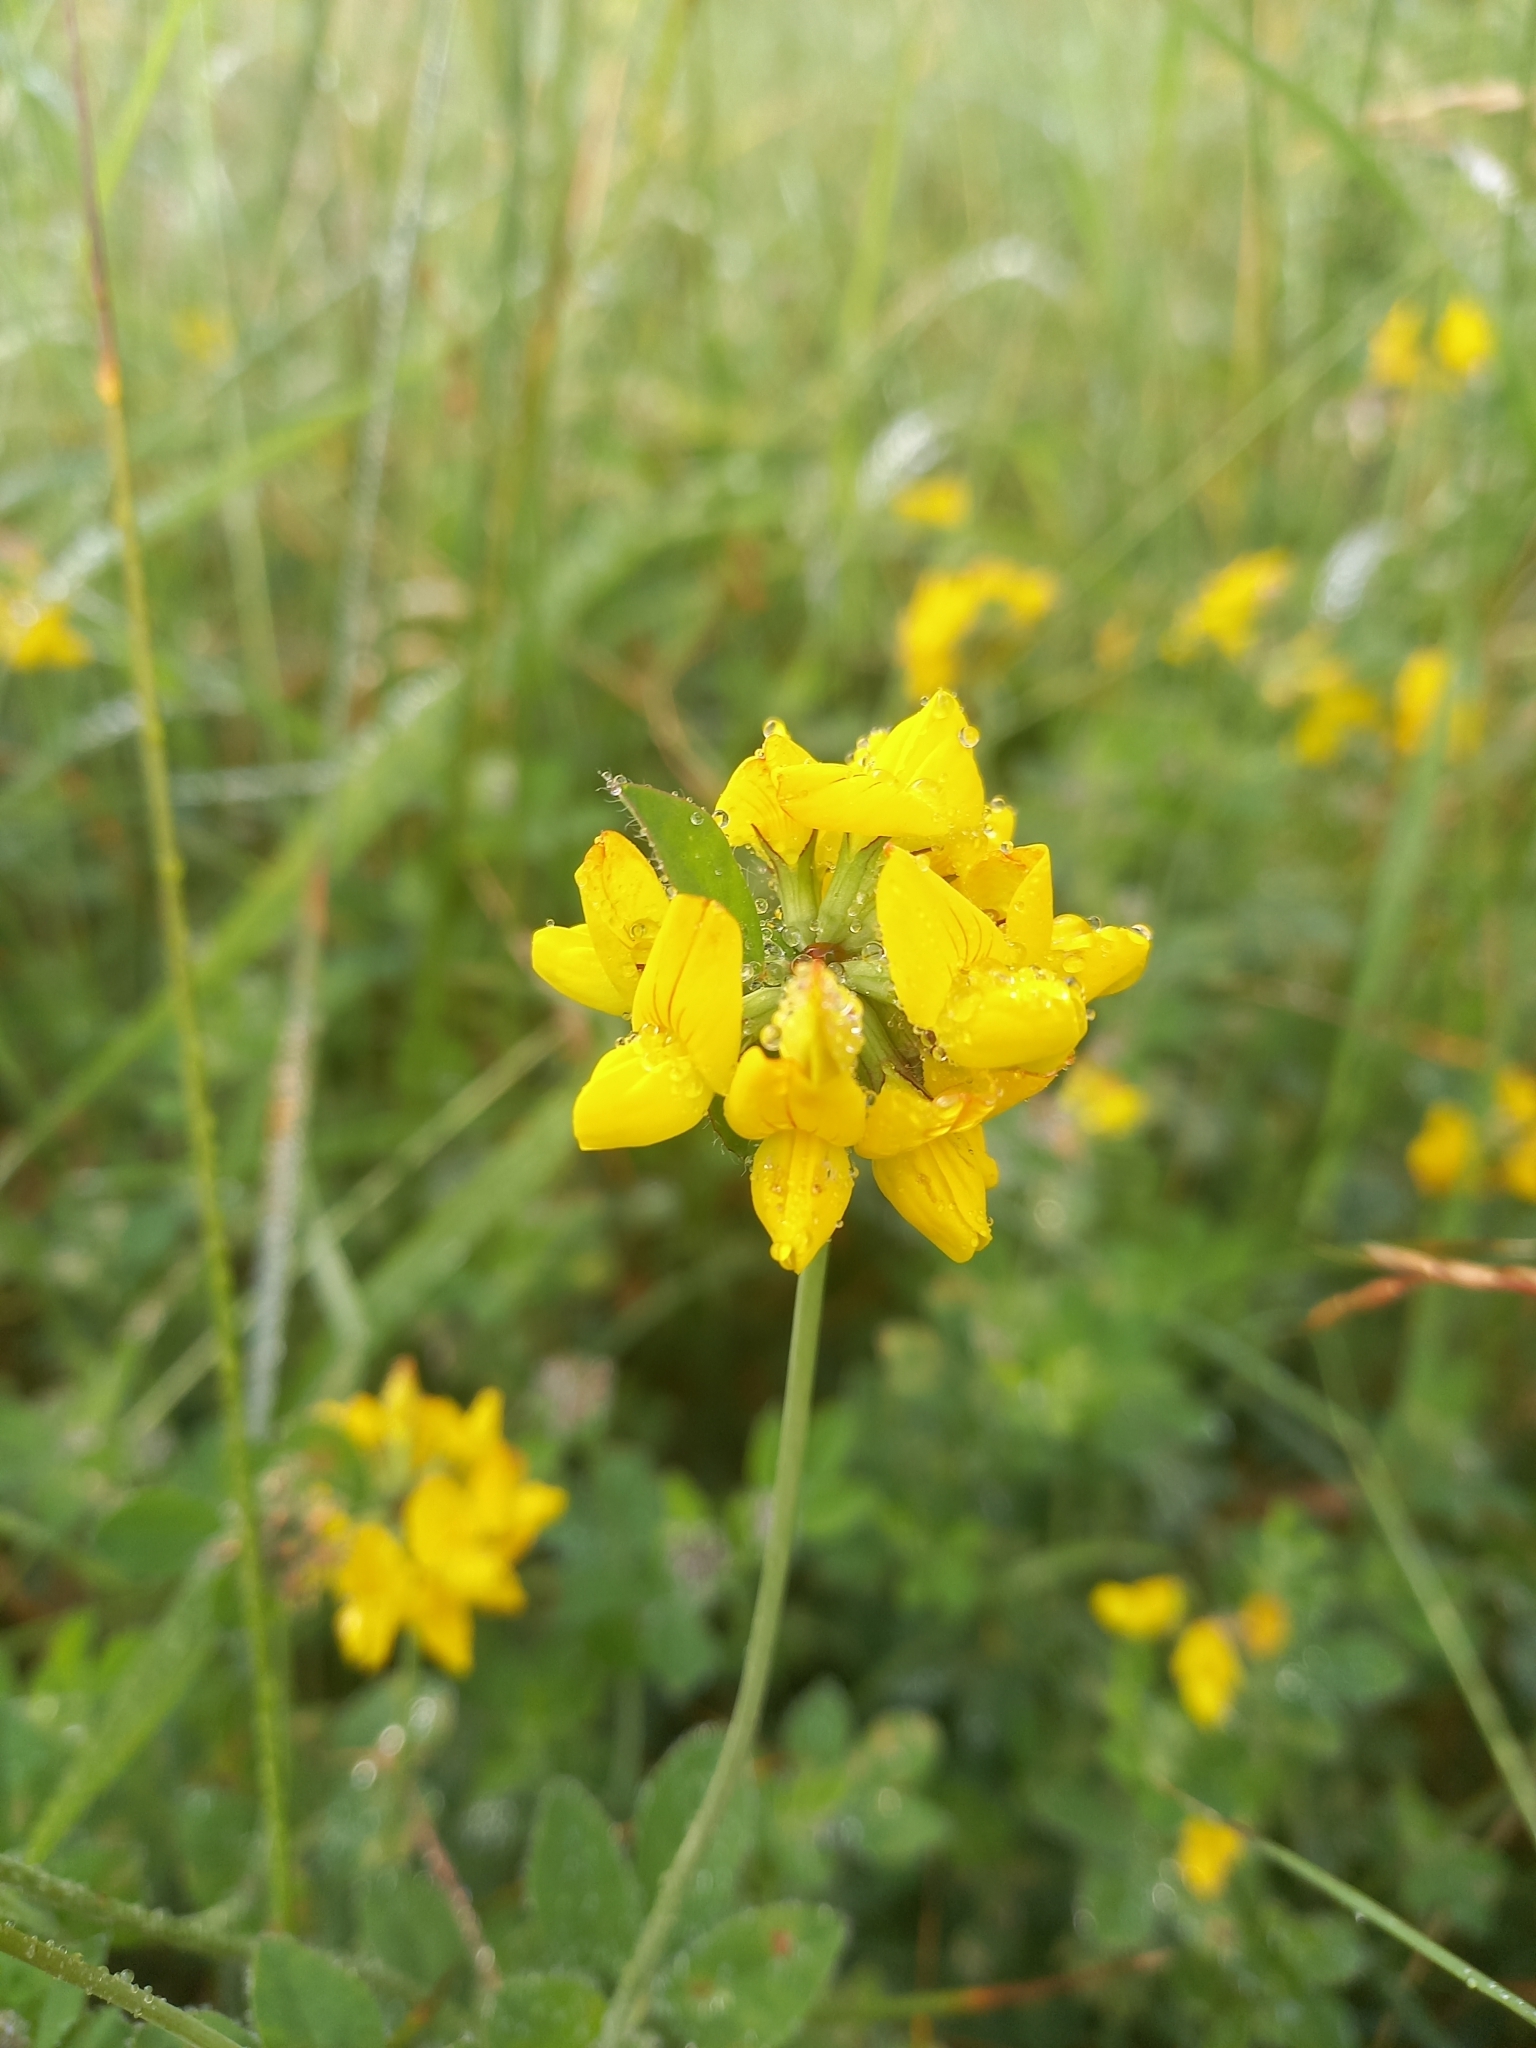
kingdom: Plantae
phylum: Tracheophyta
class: Magnoliopsida
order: Fabales
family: Fabaceae
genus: Lotus
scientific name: Lotus pedunculatus
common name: Greater birdsfoot-trefoil
